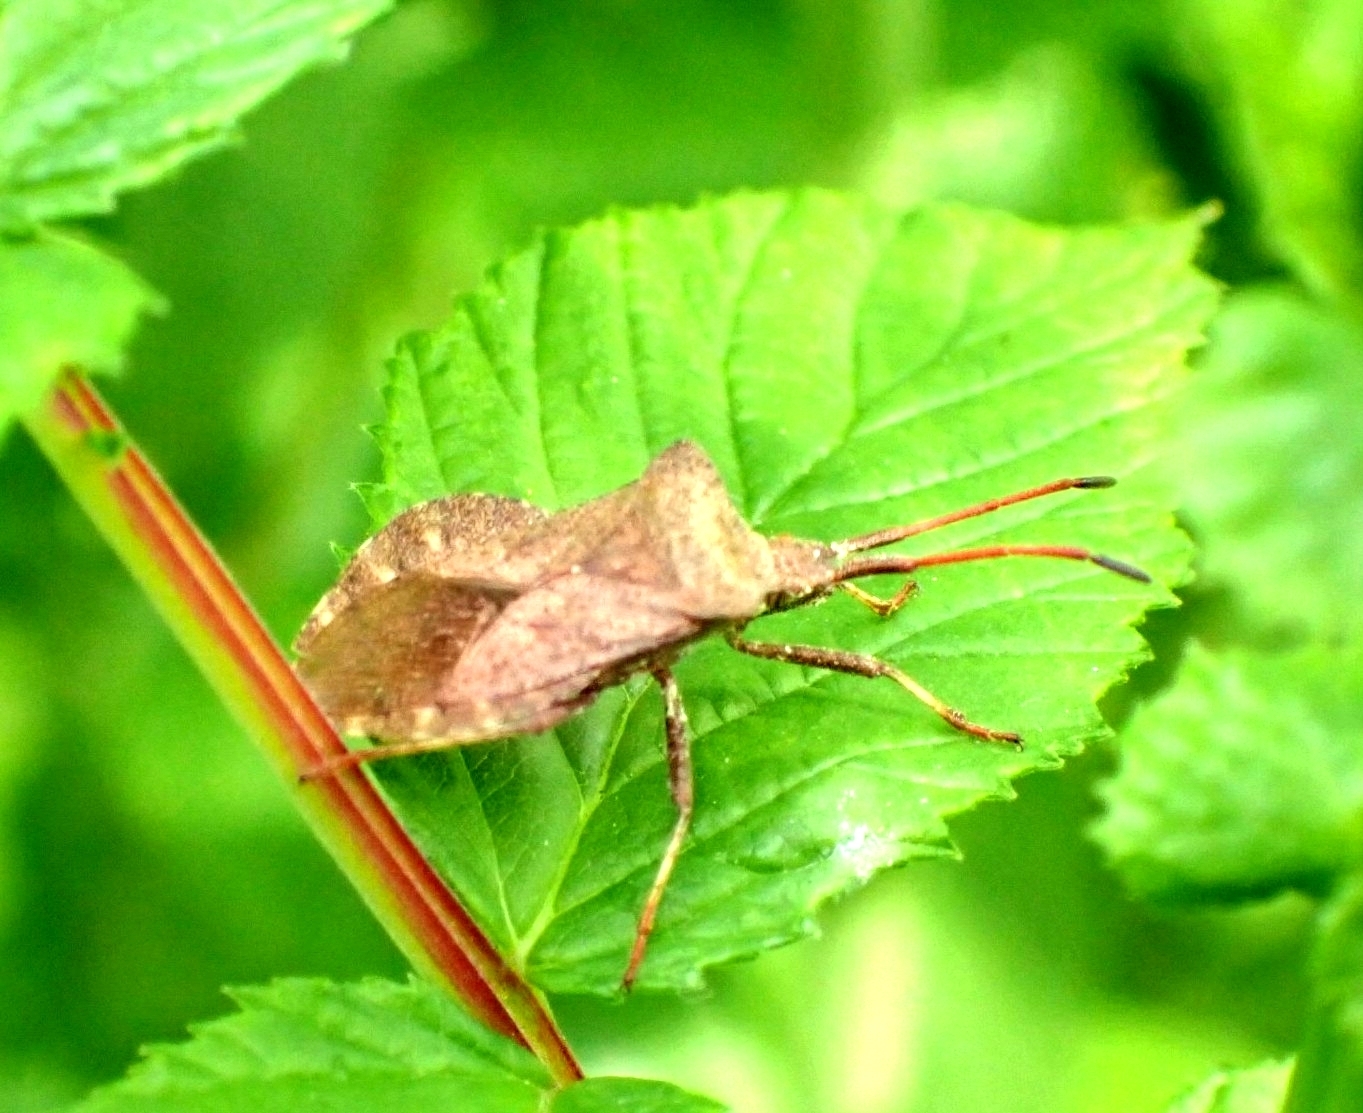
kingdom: Animalia
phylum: Arthropoda
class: Insecta
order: Hemiptera
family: Coreidae
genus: Coreus
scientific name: Coreus marginatus
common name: Dock bug
